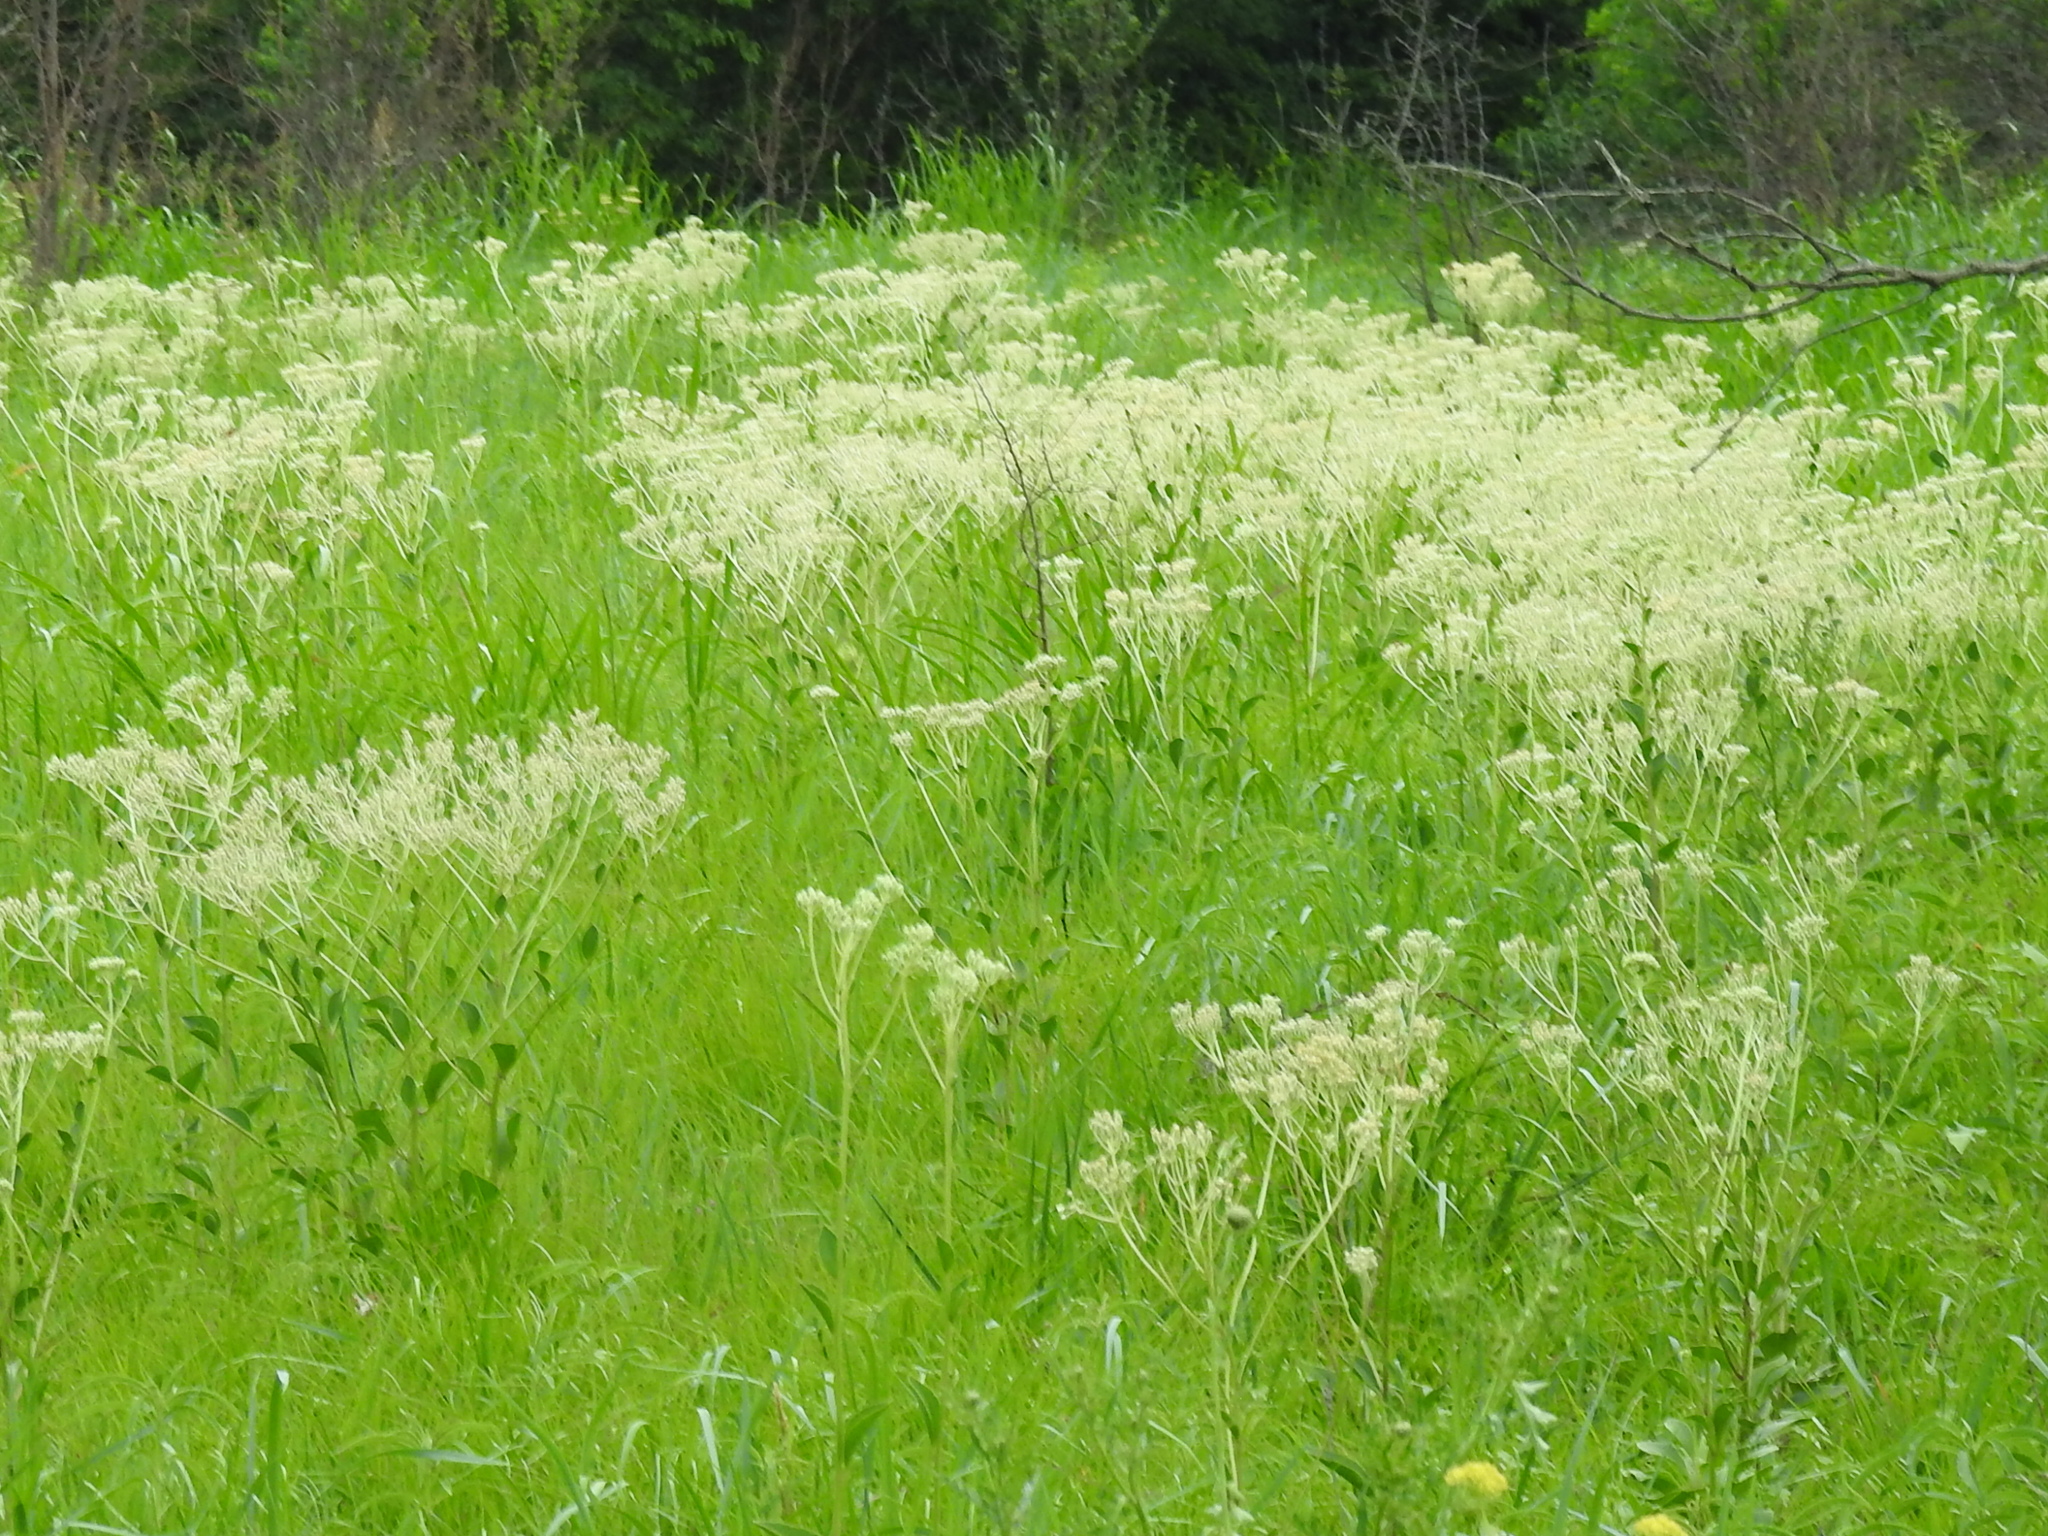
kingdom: Plantae
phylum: Tracheophyta
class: Magnoliopsida
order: Asterales
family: Asteraceae
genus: Arnoglossum
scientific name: Arnoglossum plantagineum
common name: Groove-stemmed indian-plantain
